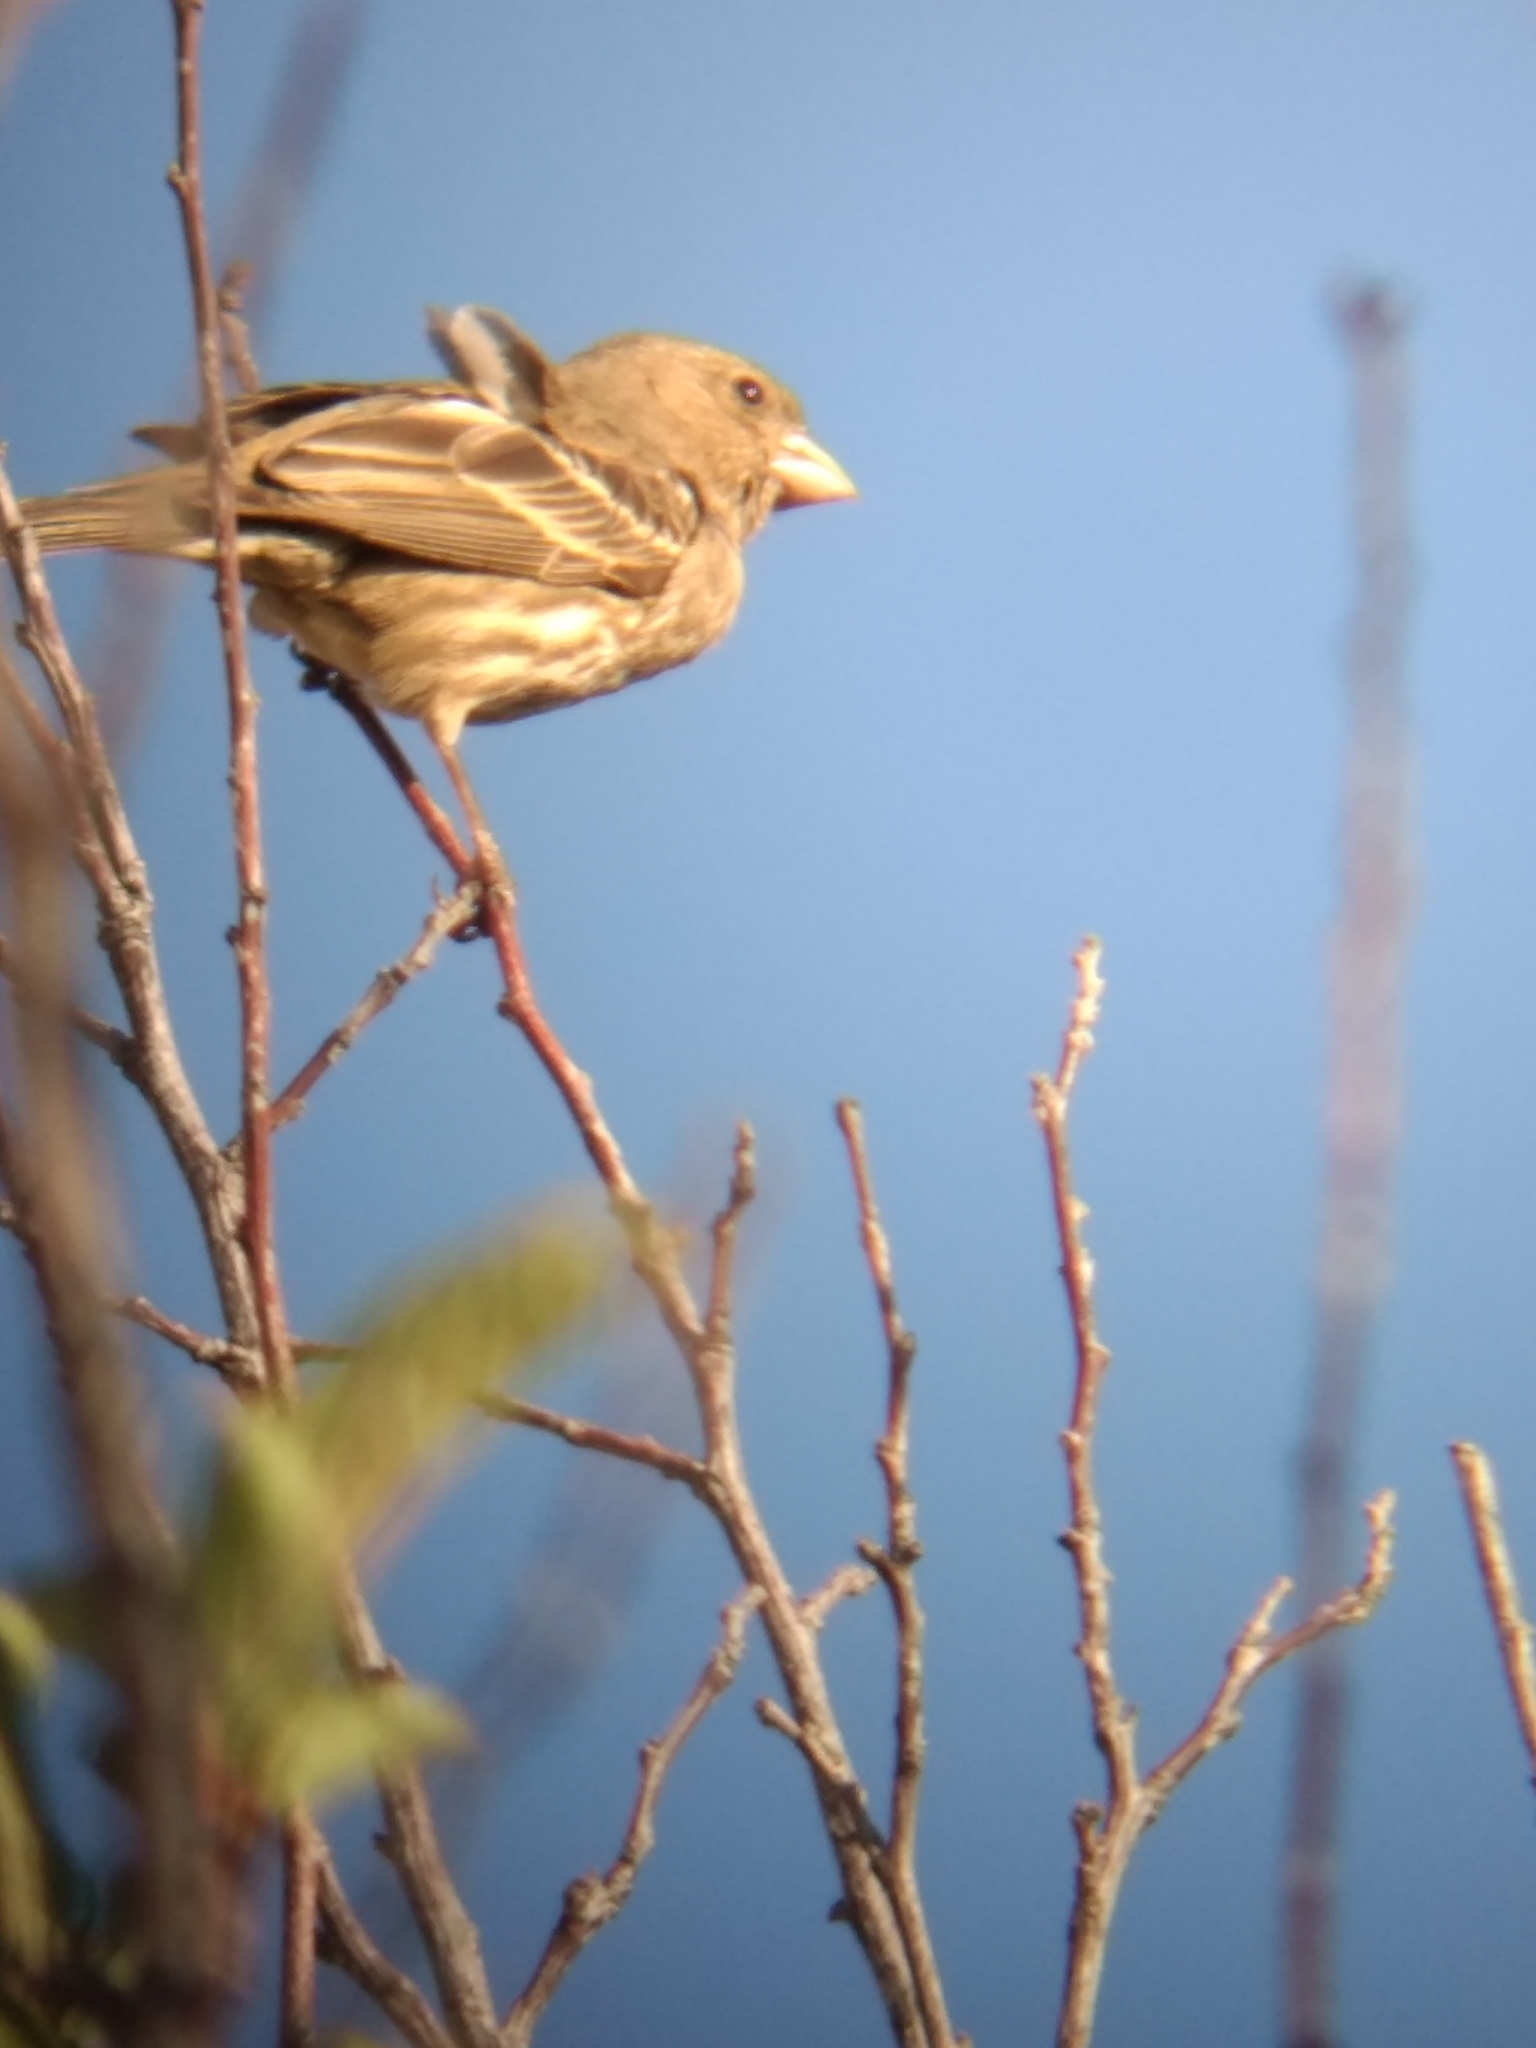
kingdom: Animalia
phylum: Chordata
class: Aves
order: Passeriformes
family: Fringillidae
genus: Haemorhous
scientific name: Haemorhous mexicanus
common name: House finch
